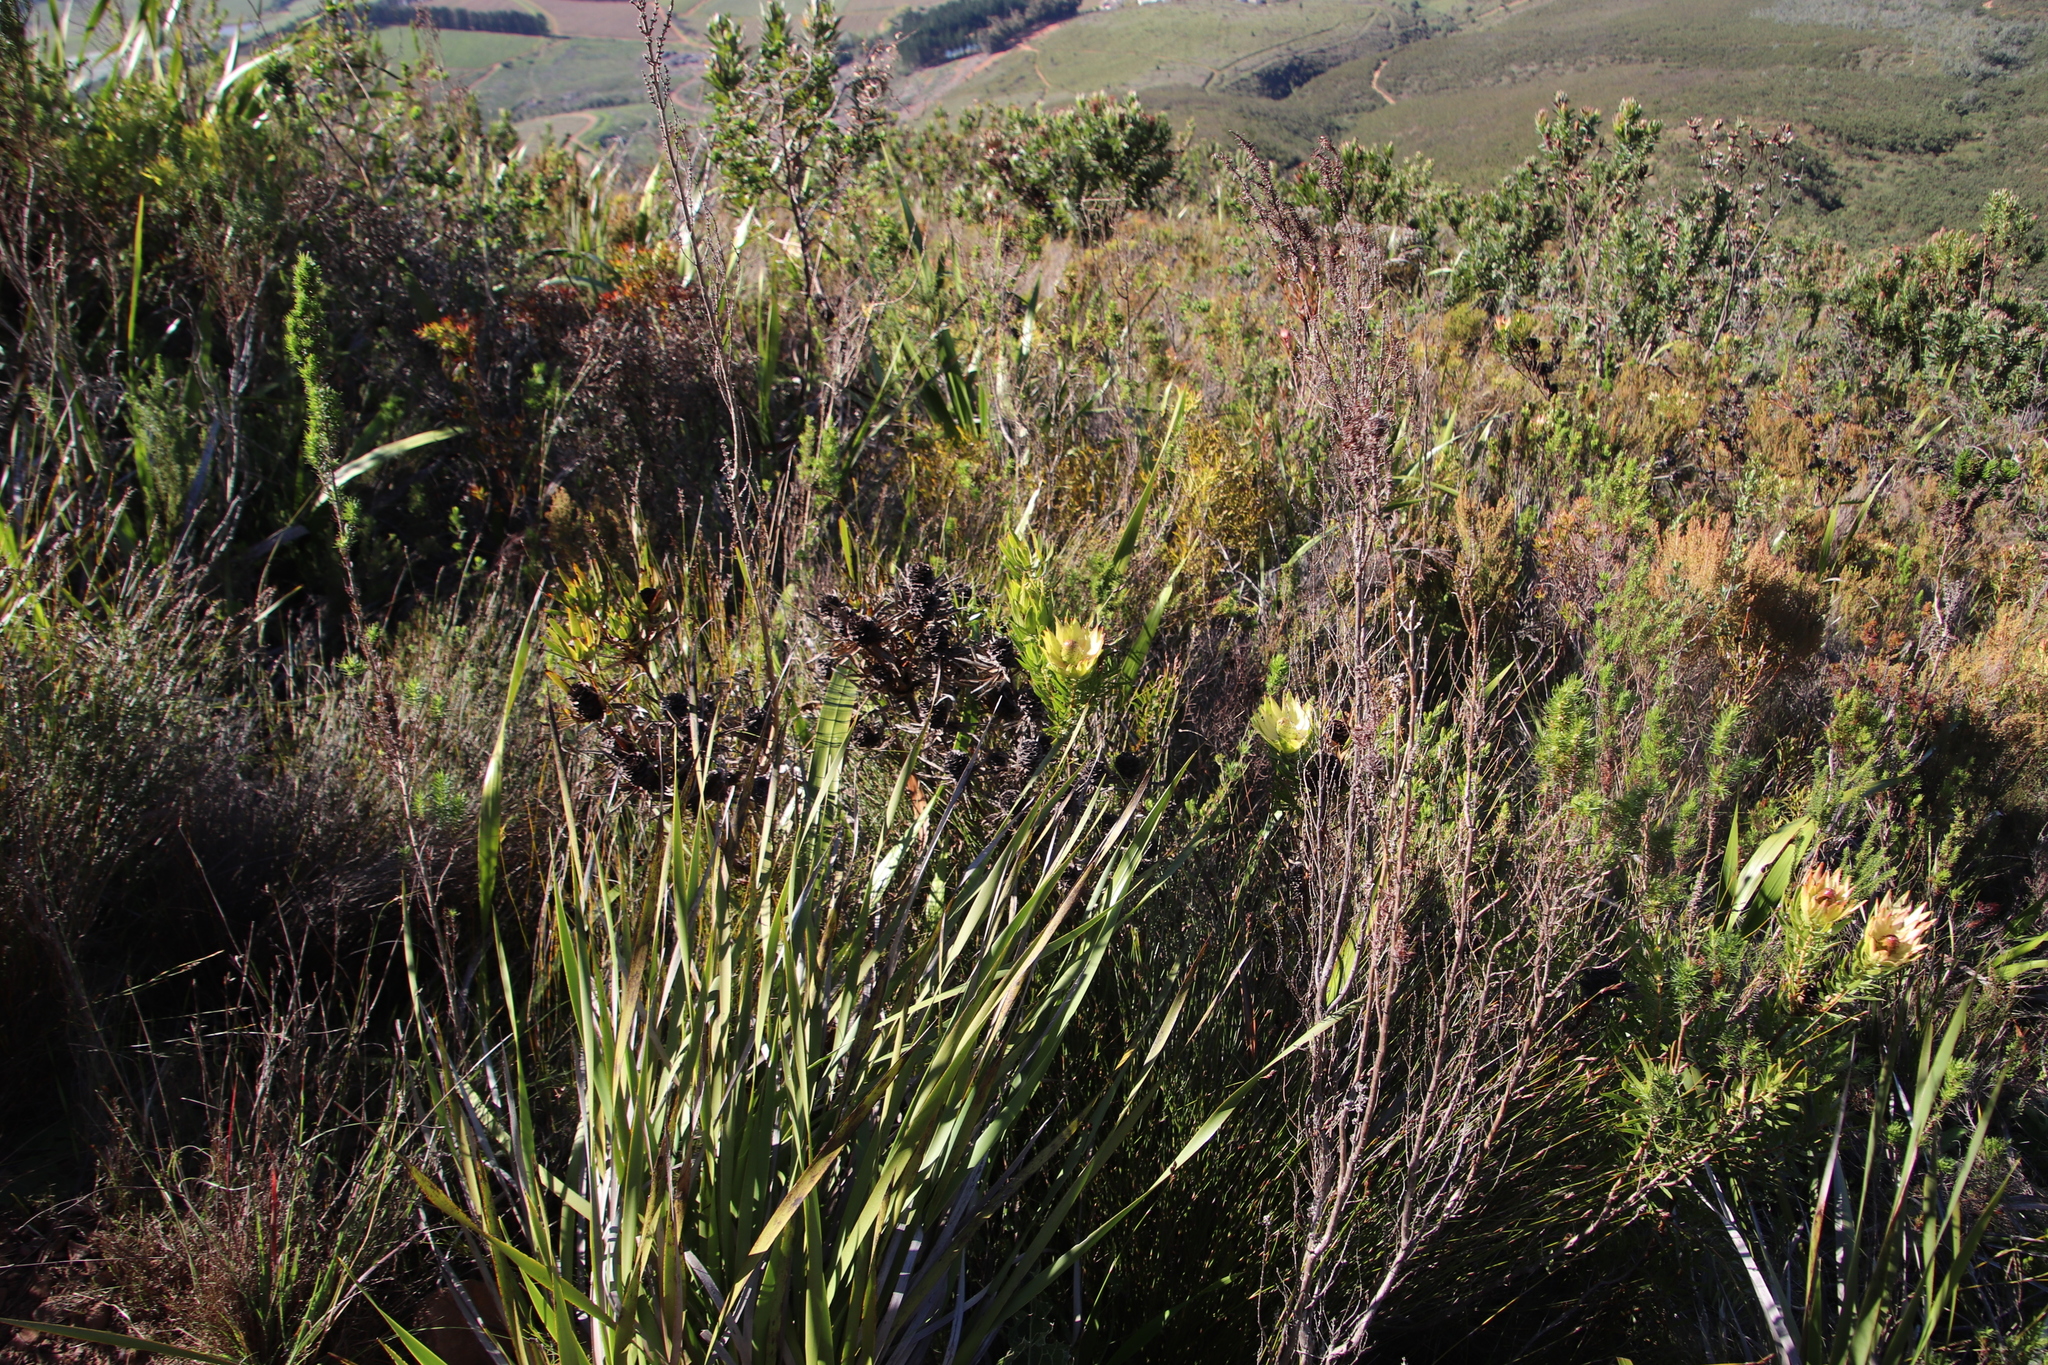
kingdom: Plantae
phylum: Tracheophyta
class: Magnoliopsida
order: Proteales
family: Proteaceae
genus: Leucadendron
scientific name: Leucadendron spissifolium
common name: Spear-leaf conebush
